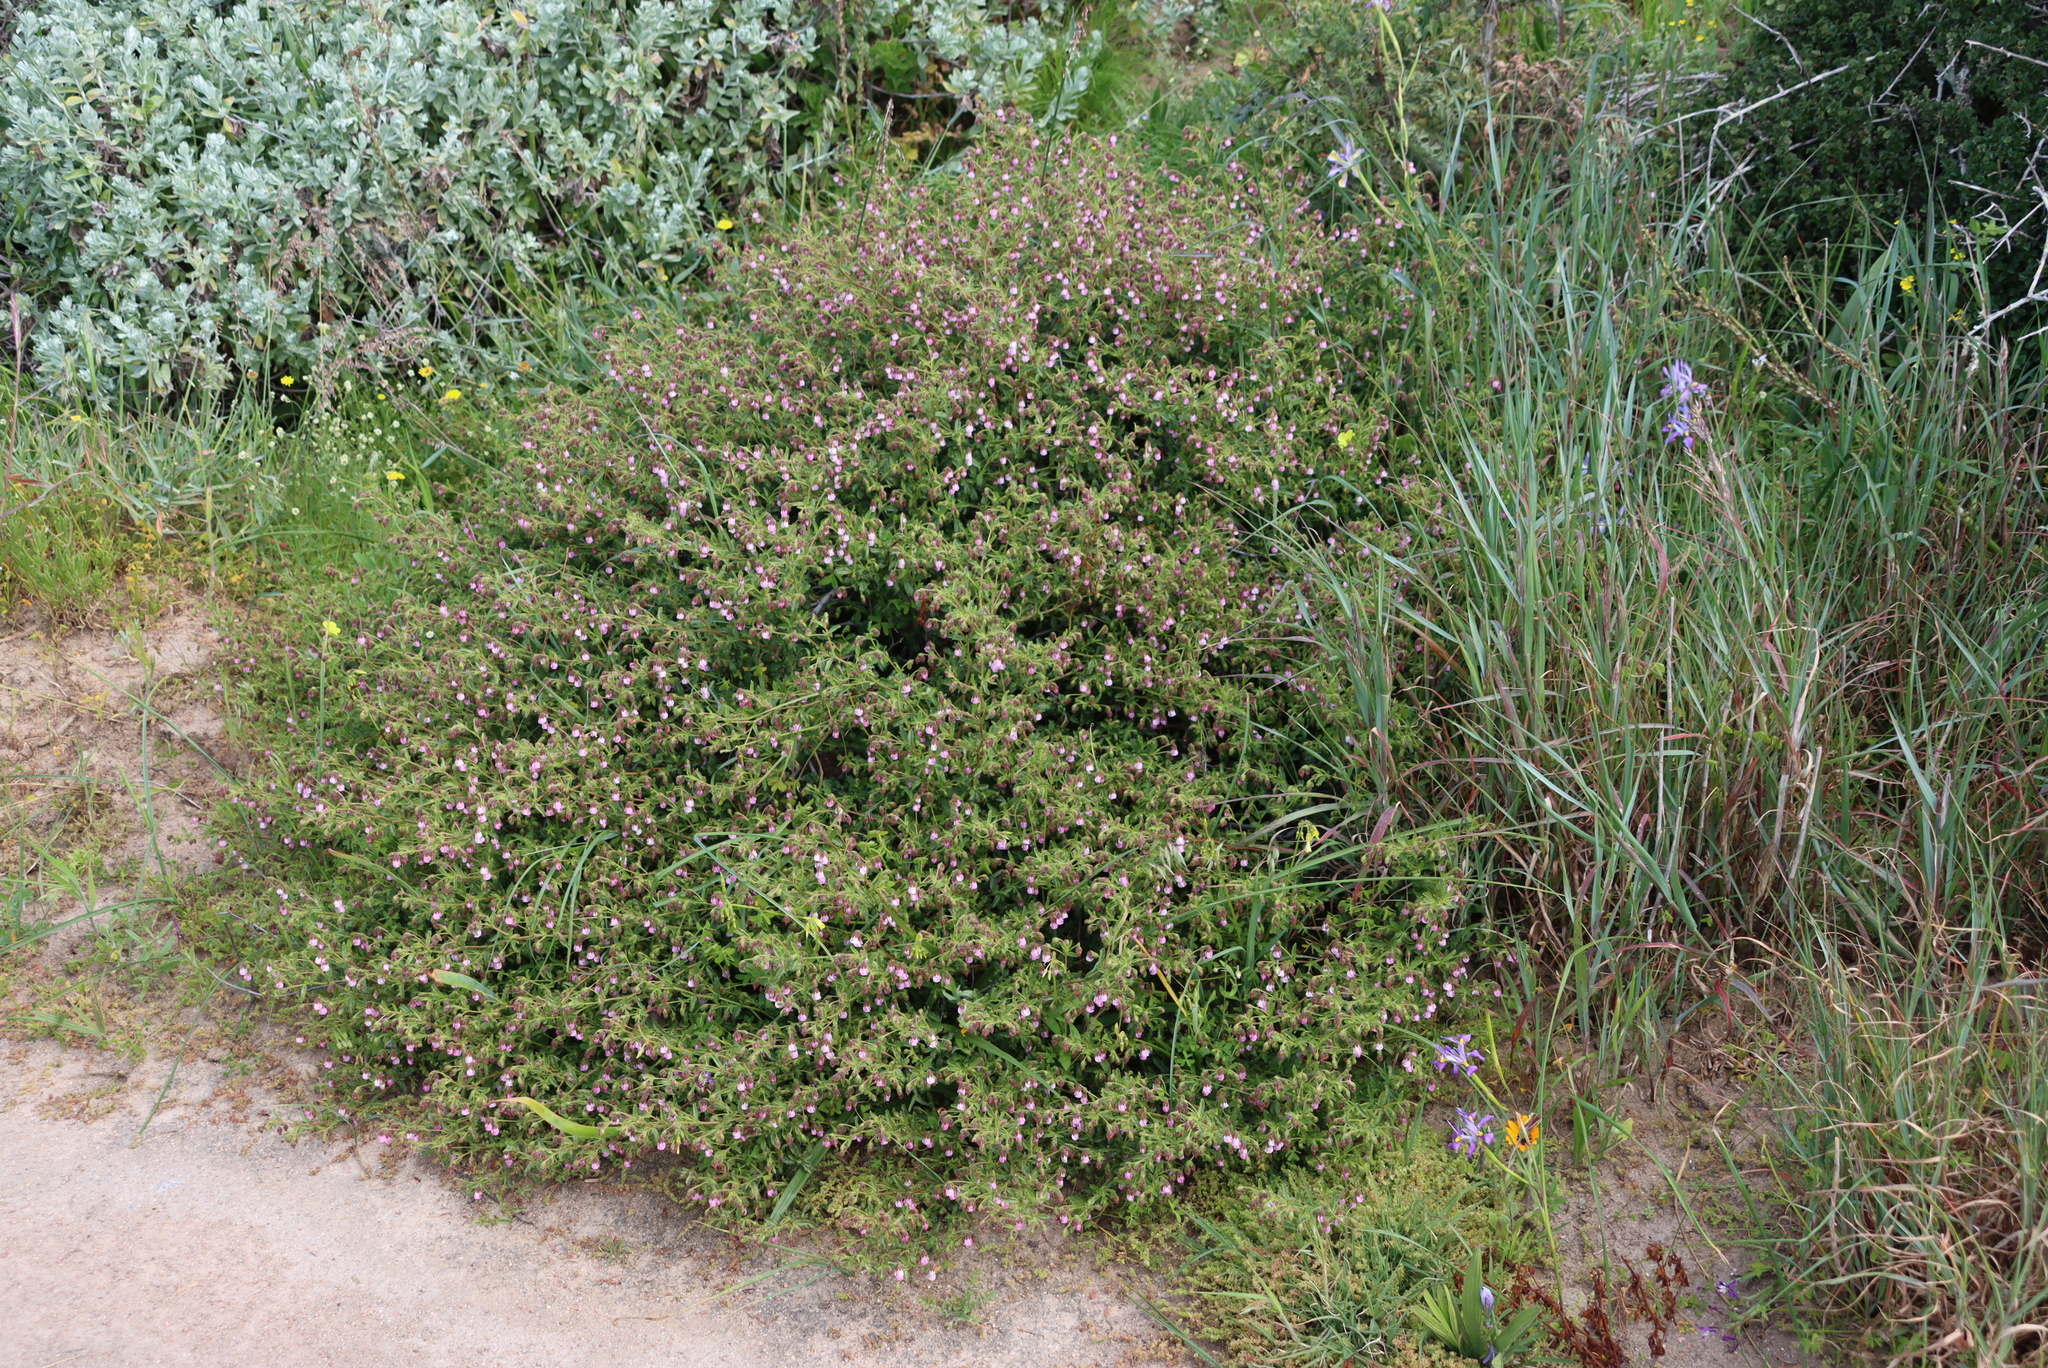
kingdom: Plantae
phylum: Tracheophyta
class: Magnoliopsida
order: Malvales
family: Malvaceae
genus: Hermannia
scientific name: Hermannia heterophylla
